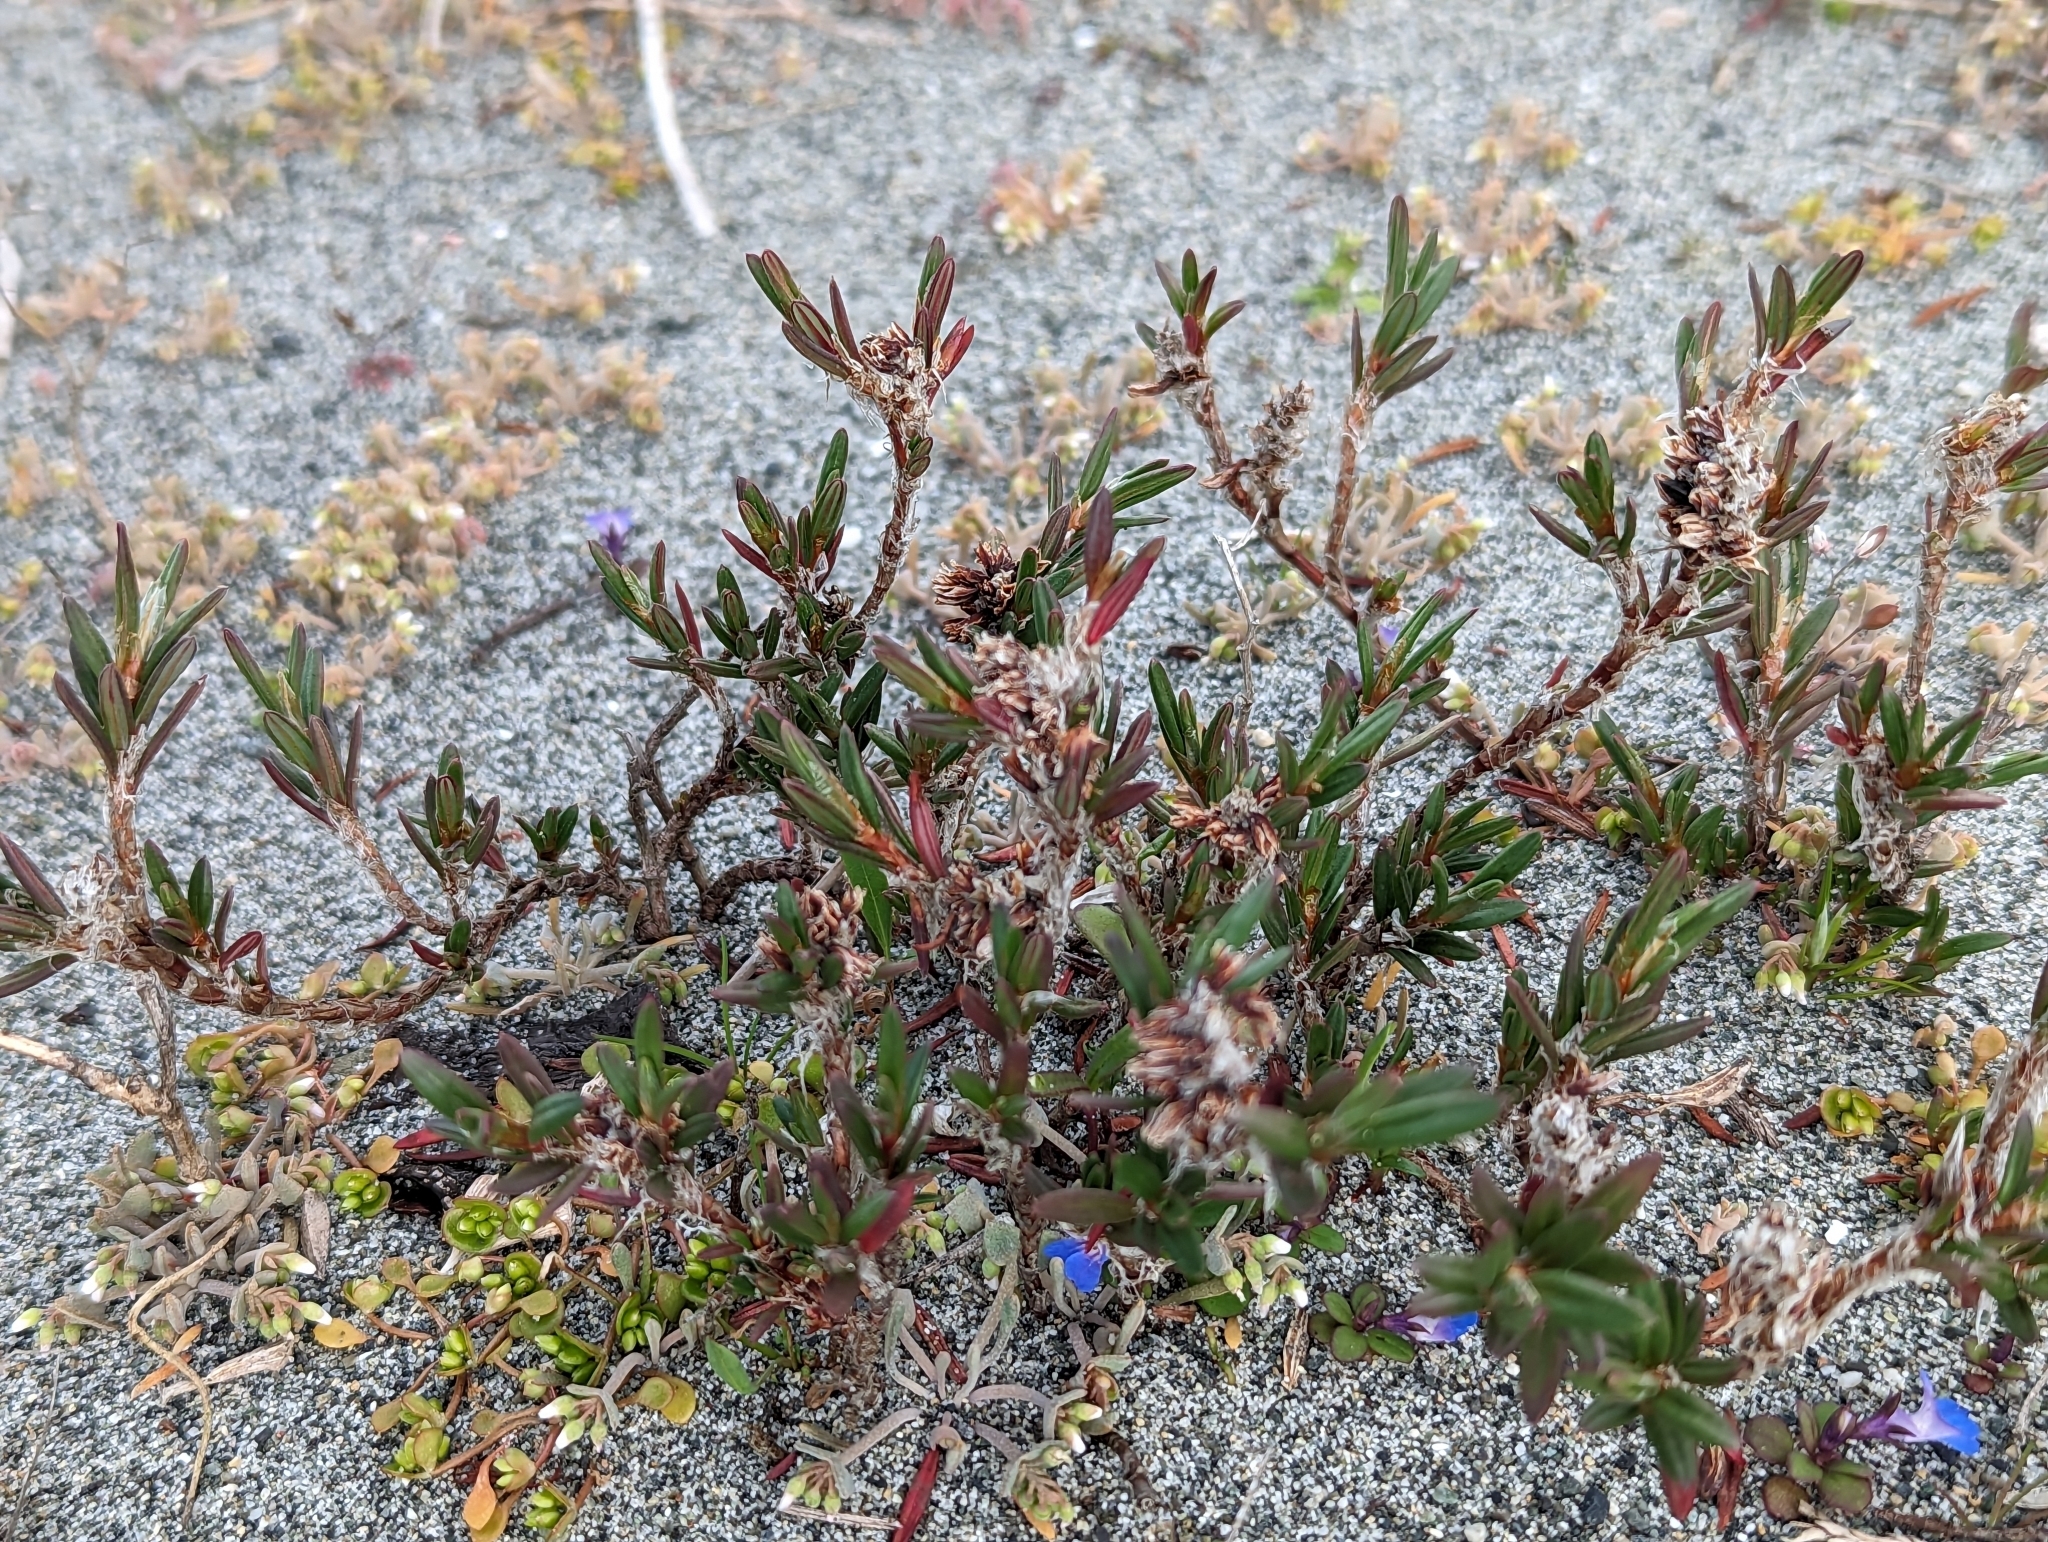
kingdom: Plantae
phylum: Tracheophyta
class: Magnoliopsida
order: Caryophyllales
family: Polygonaceae
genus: Polygonum
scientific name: Polygonum paronychia
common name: Dune knotweed
